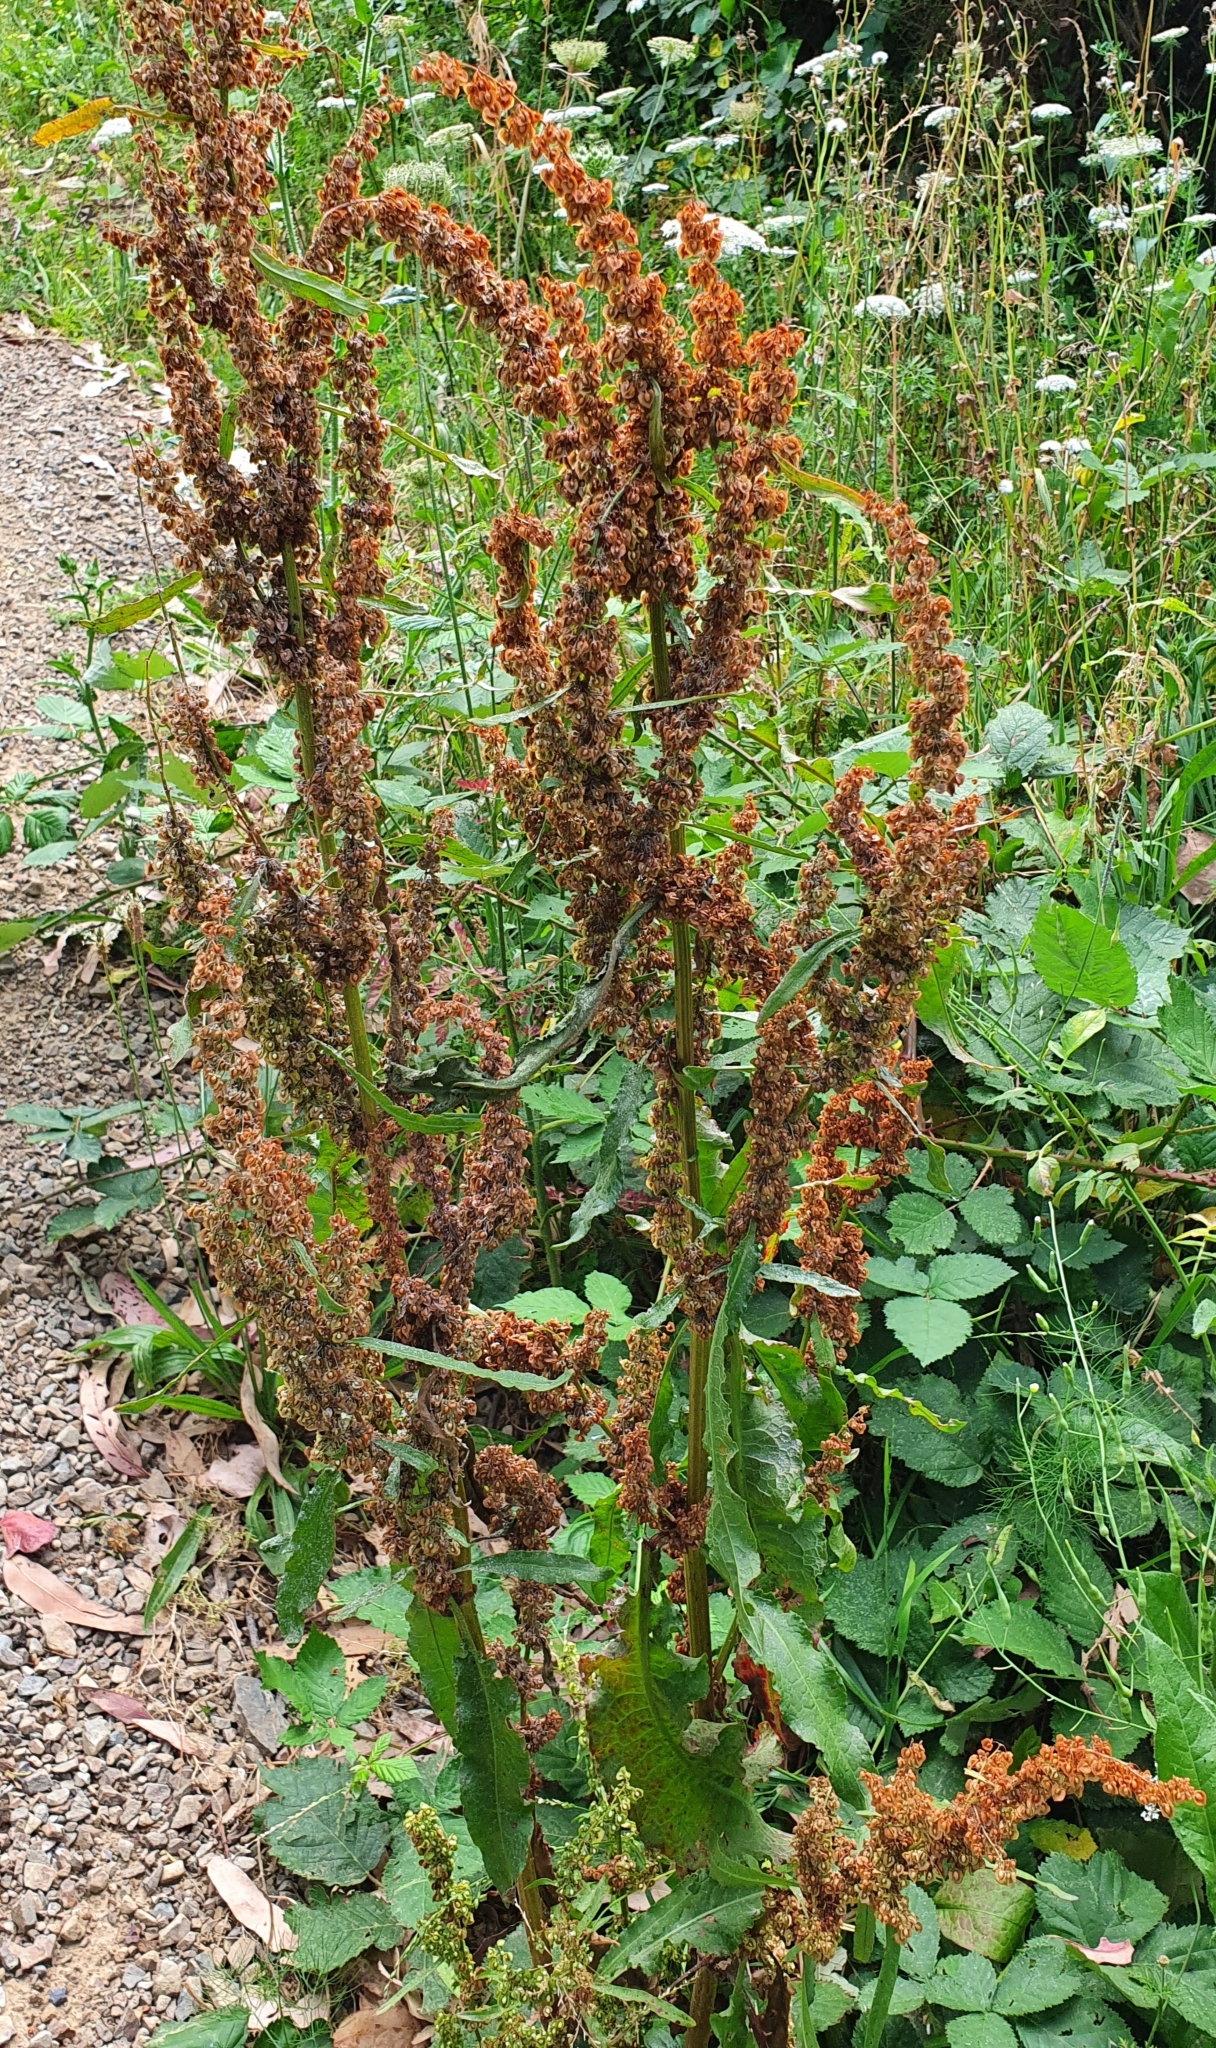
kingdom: Plantae
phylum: Tracheophyta
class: Magnoliopsida
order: Caryophyllales
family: Polygonaceae
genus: Rumex
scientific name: Rumex crispus
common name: Curled dock
